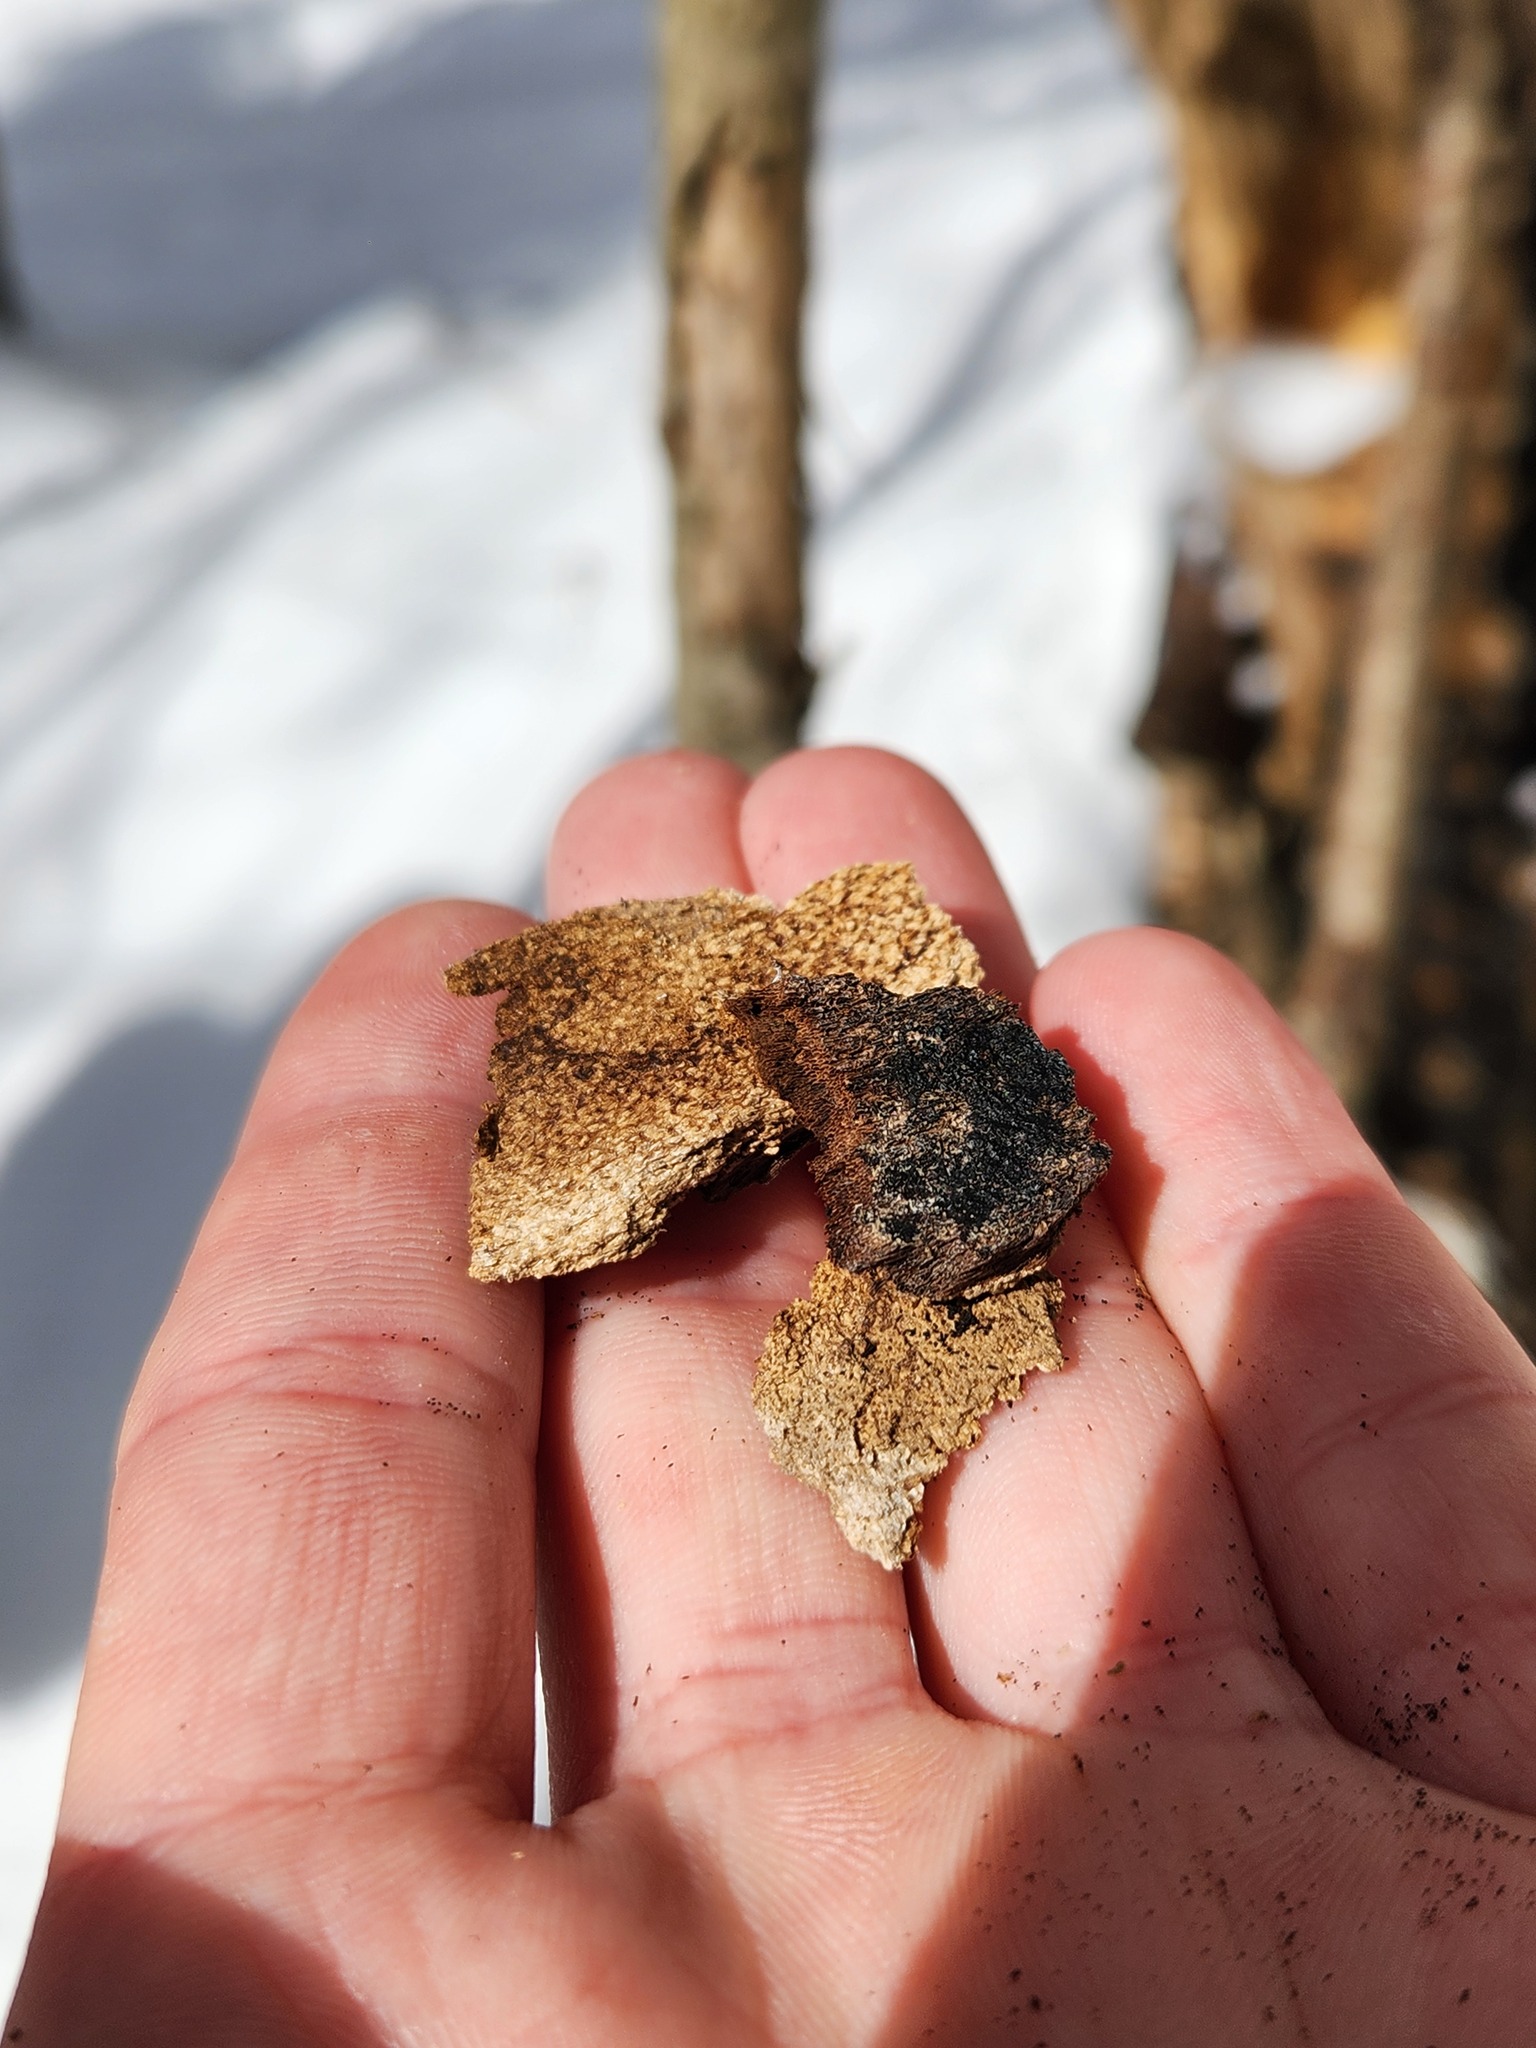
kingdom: Fungi
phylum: Basidiomycota
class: Agaricomycetes
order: Hymenochaetales
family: Hymenochaetaceae
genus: Inonotus
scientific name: Inonotus obliquus
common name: Chaga
